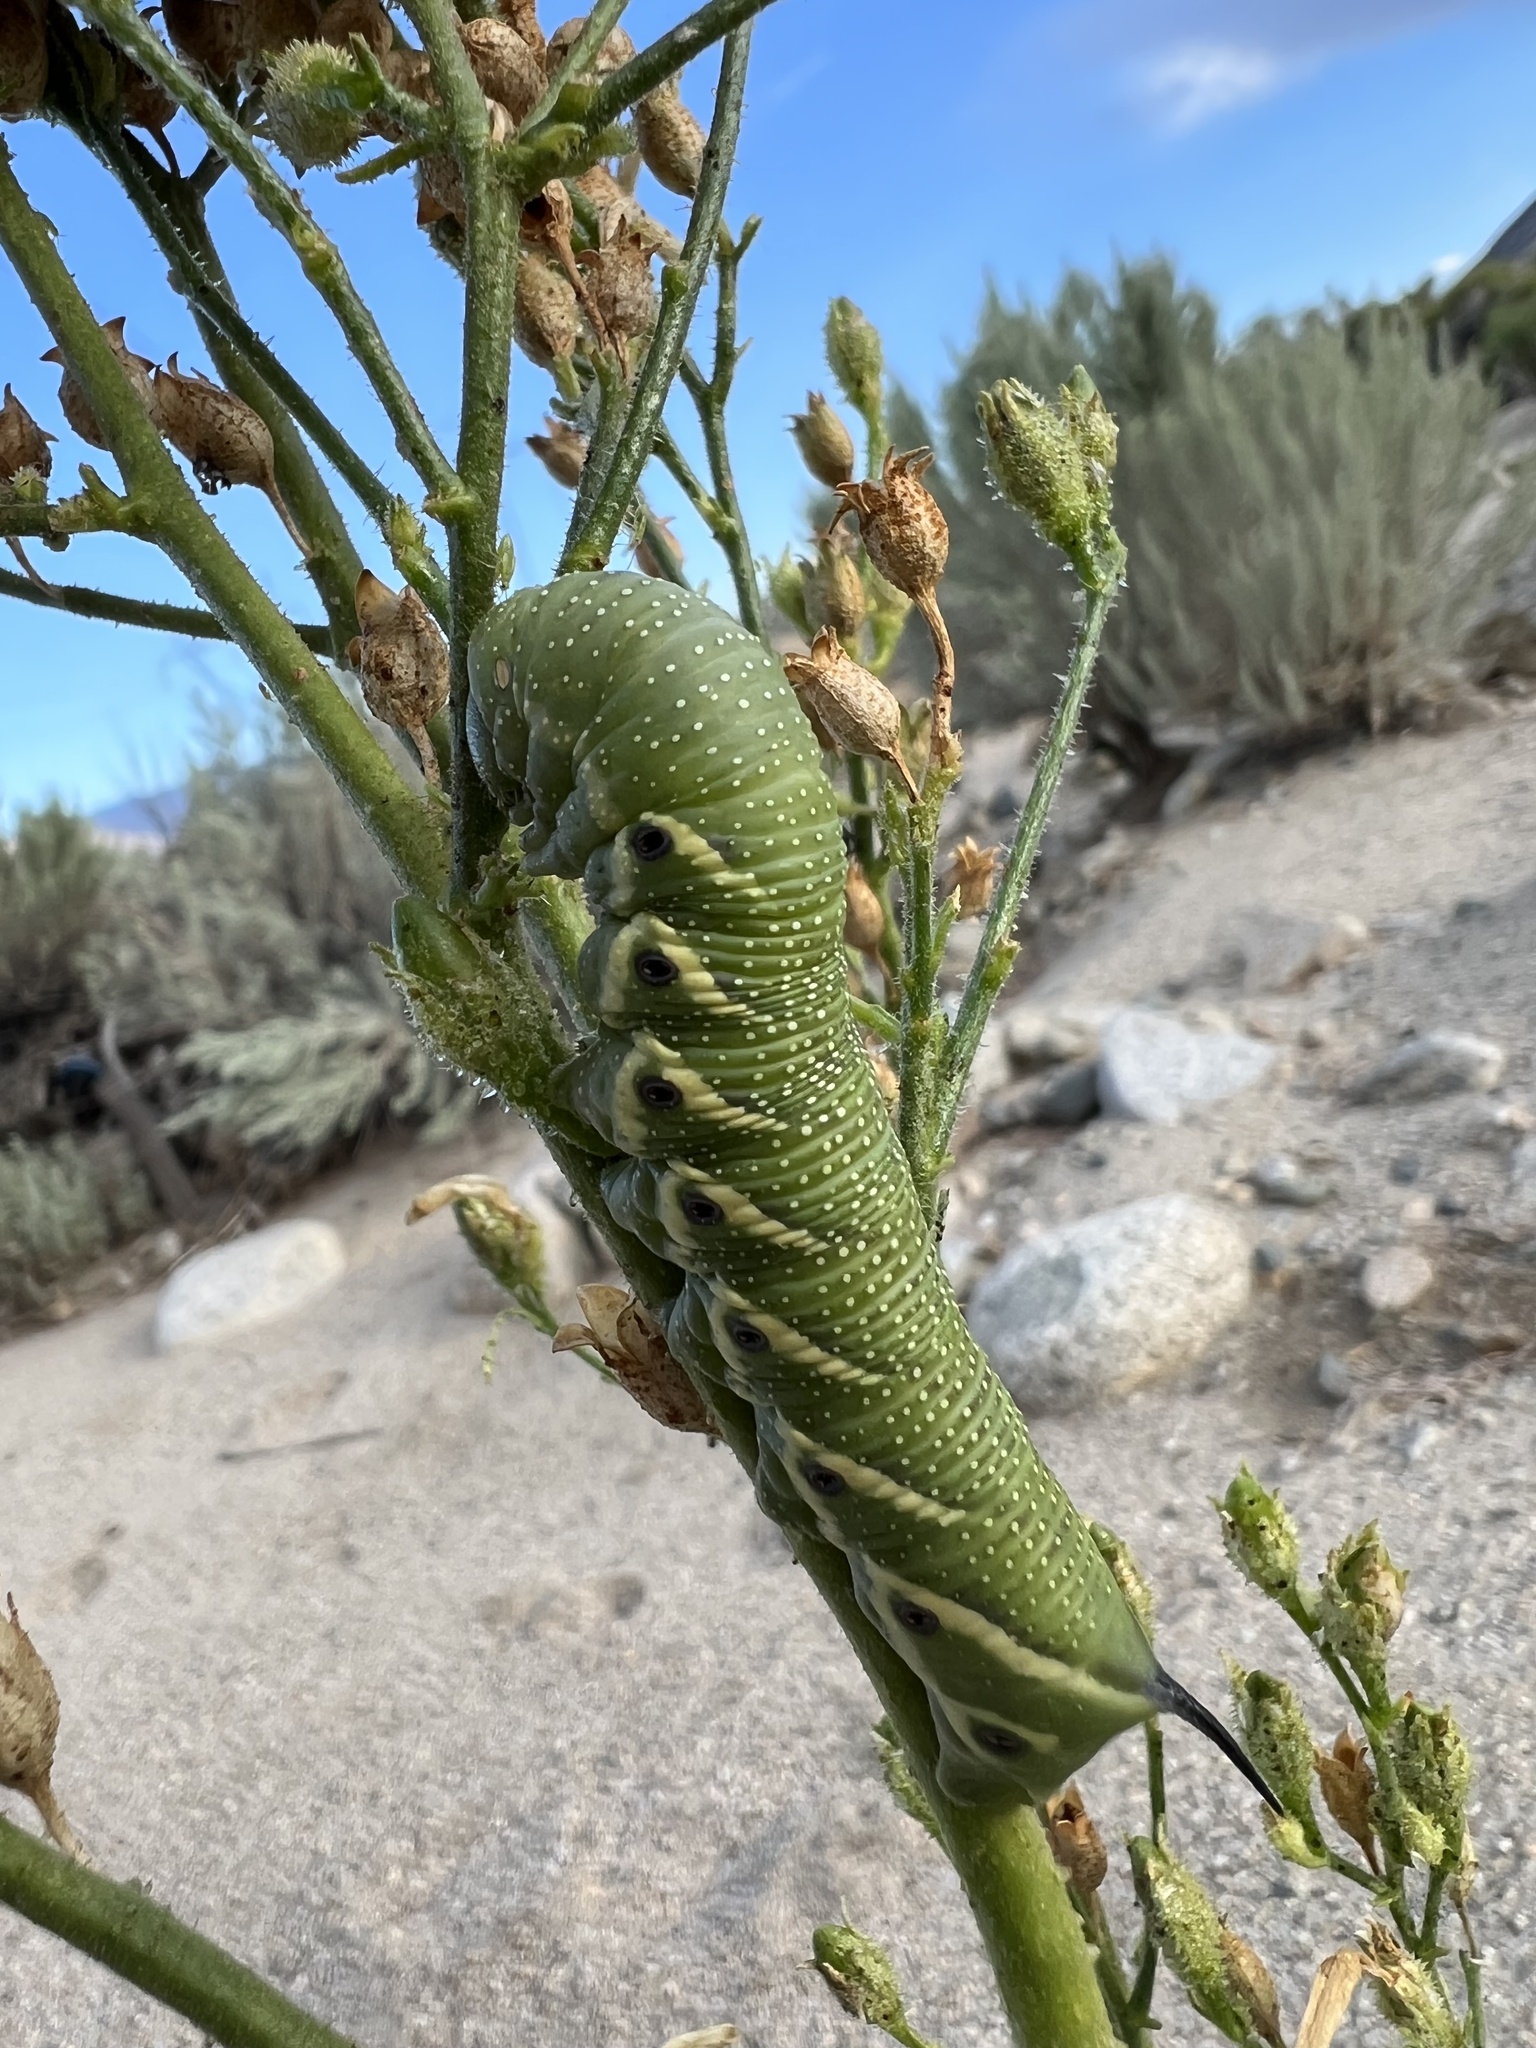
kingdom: Animalia
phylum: Arthropoda
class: Insecta
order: Lepidoptera
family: Sphingidae
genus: Manduca
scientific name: Manduca quinquemaculatus
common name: Five-spotted hawk-moth
